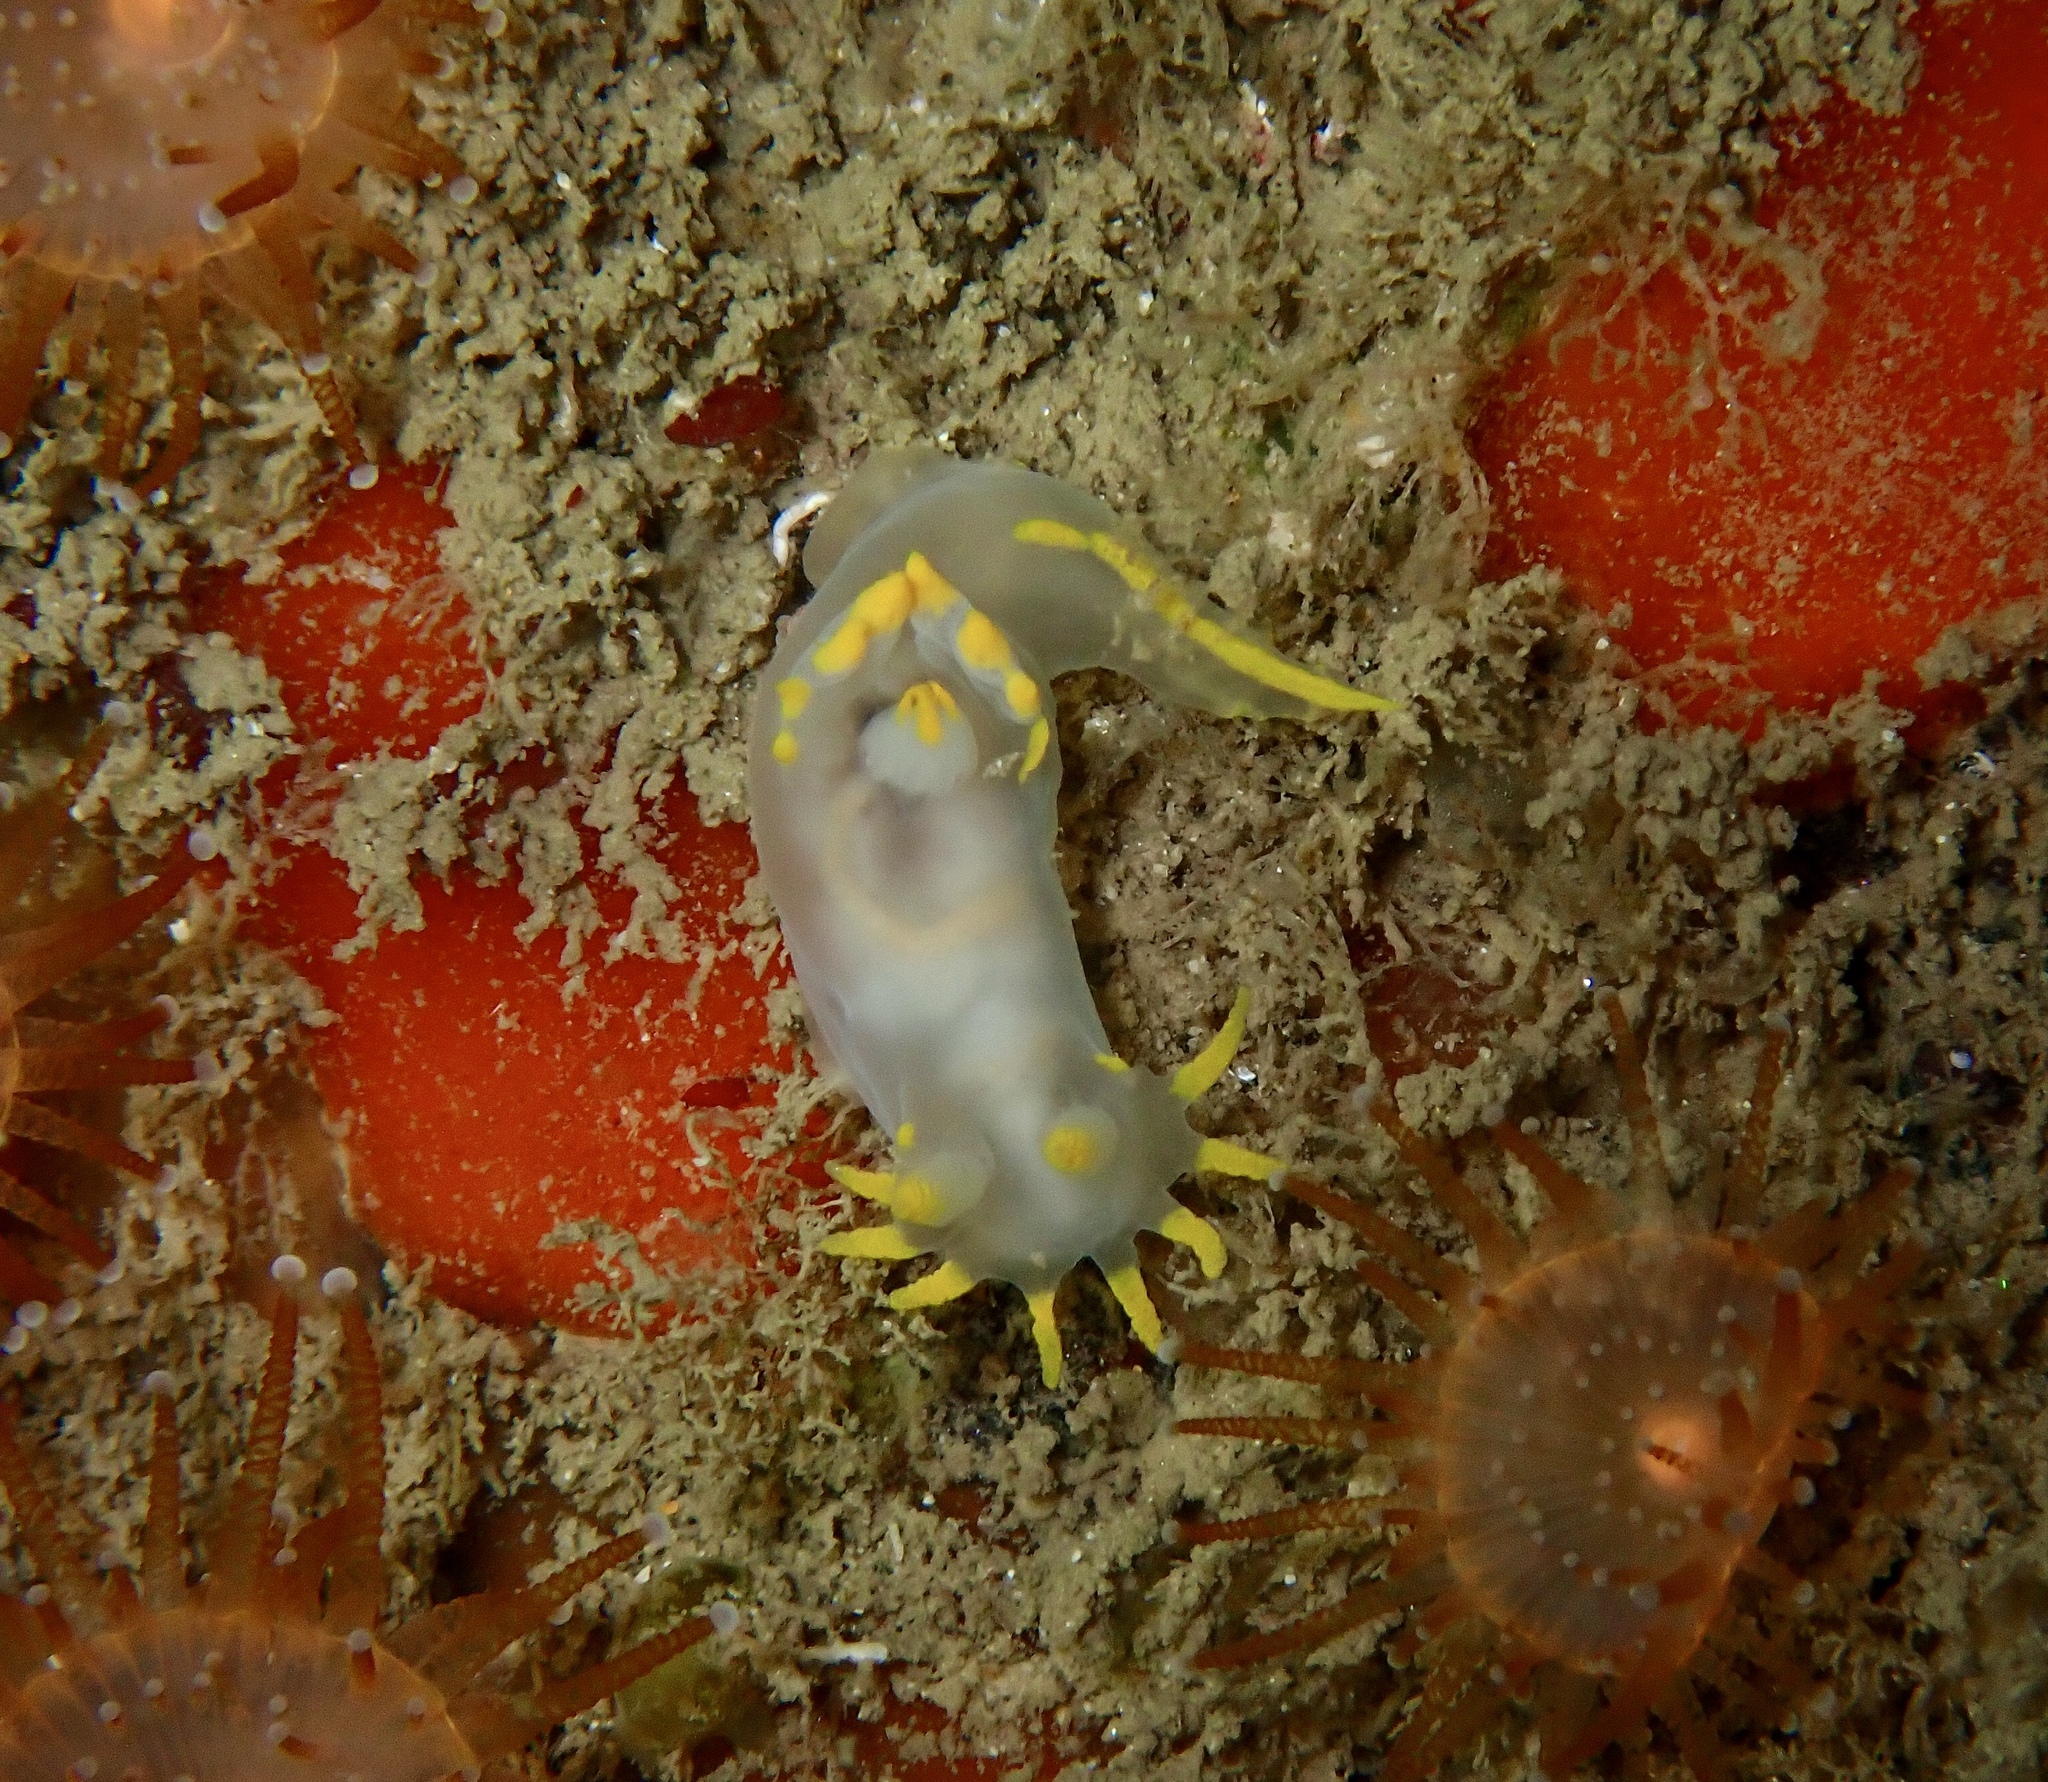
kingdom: Animalia
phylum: Mollusca
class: Gastropoda
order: Nudibranchia
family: Polyceridae
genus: Polycera
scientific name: Polycera faeroensis
